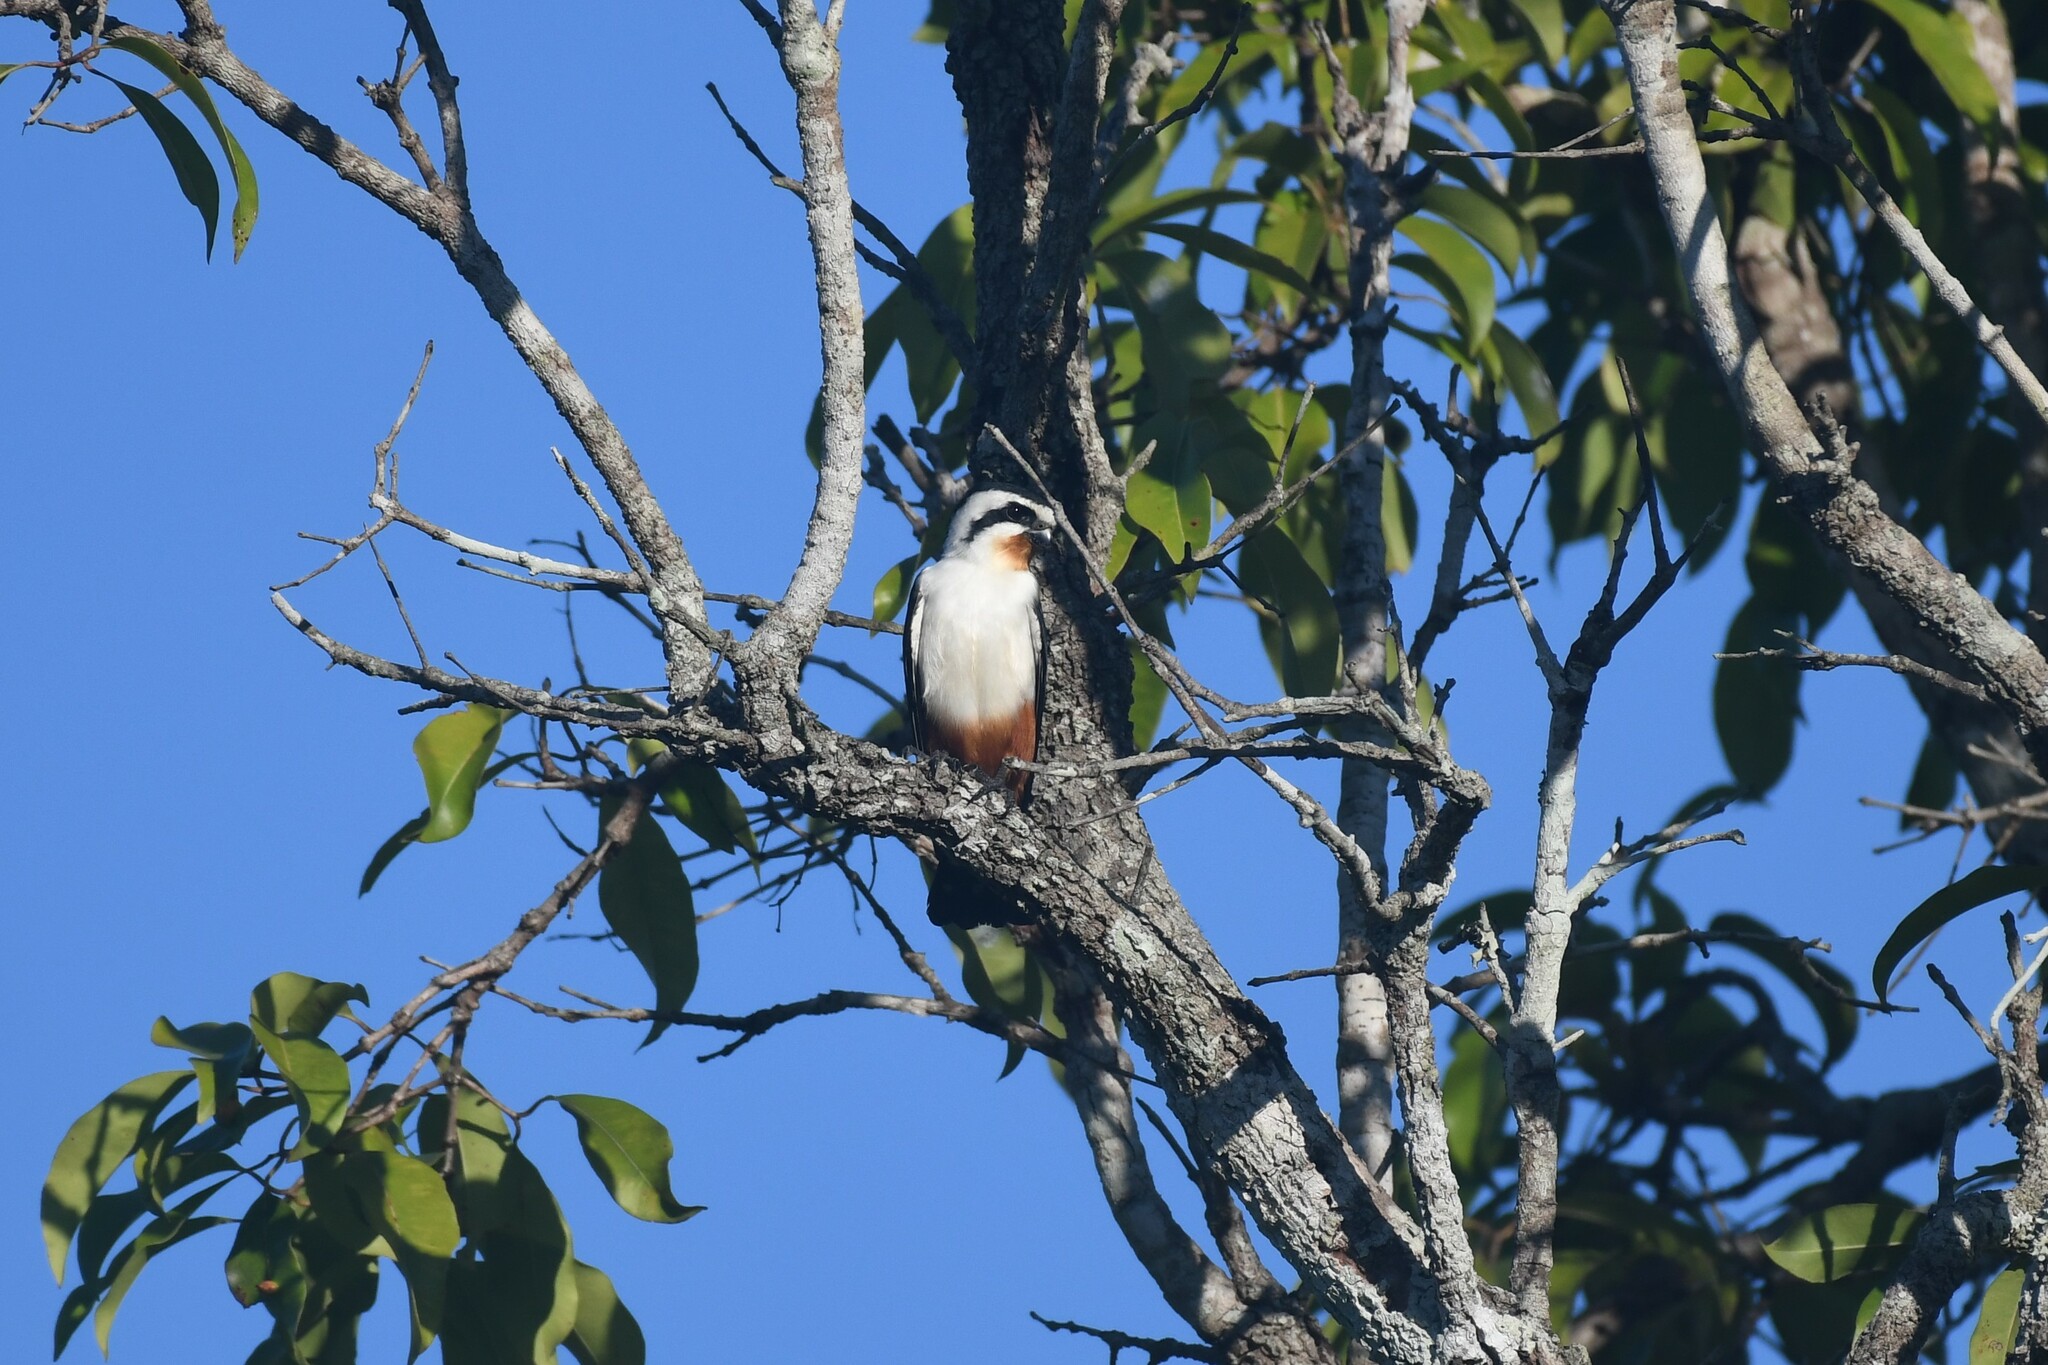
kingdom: Animalia
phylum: Chordata
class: Aves
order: Falconiformes
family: Falconidae
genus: Microhierax
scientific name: Microhierax caerulescens
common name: Collared falconet
